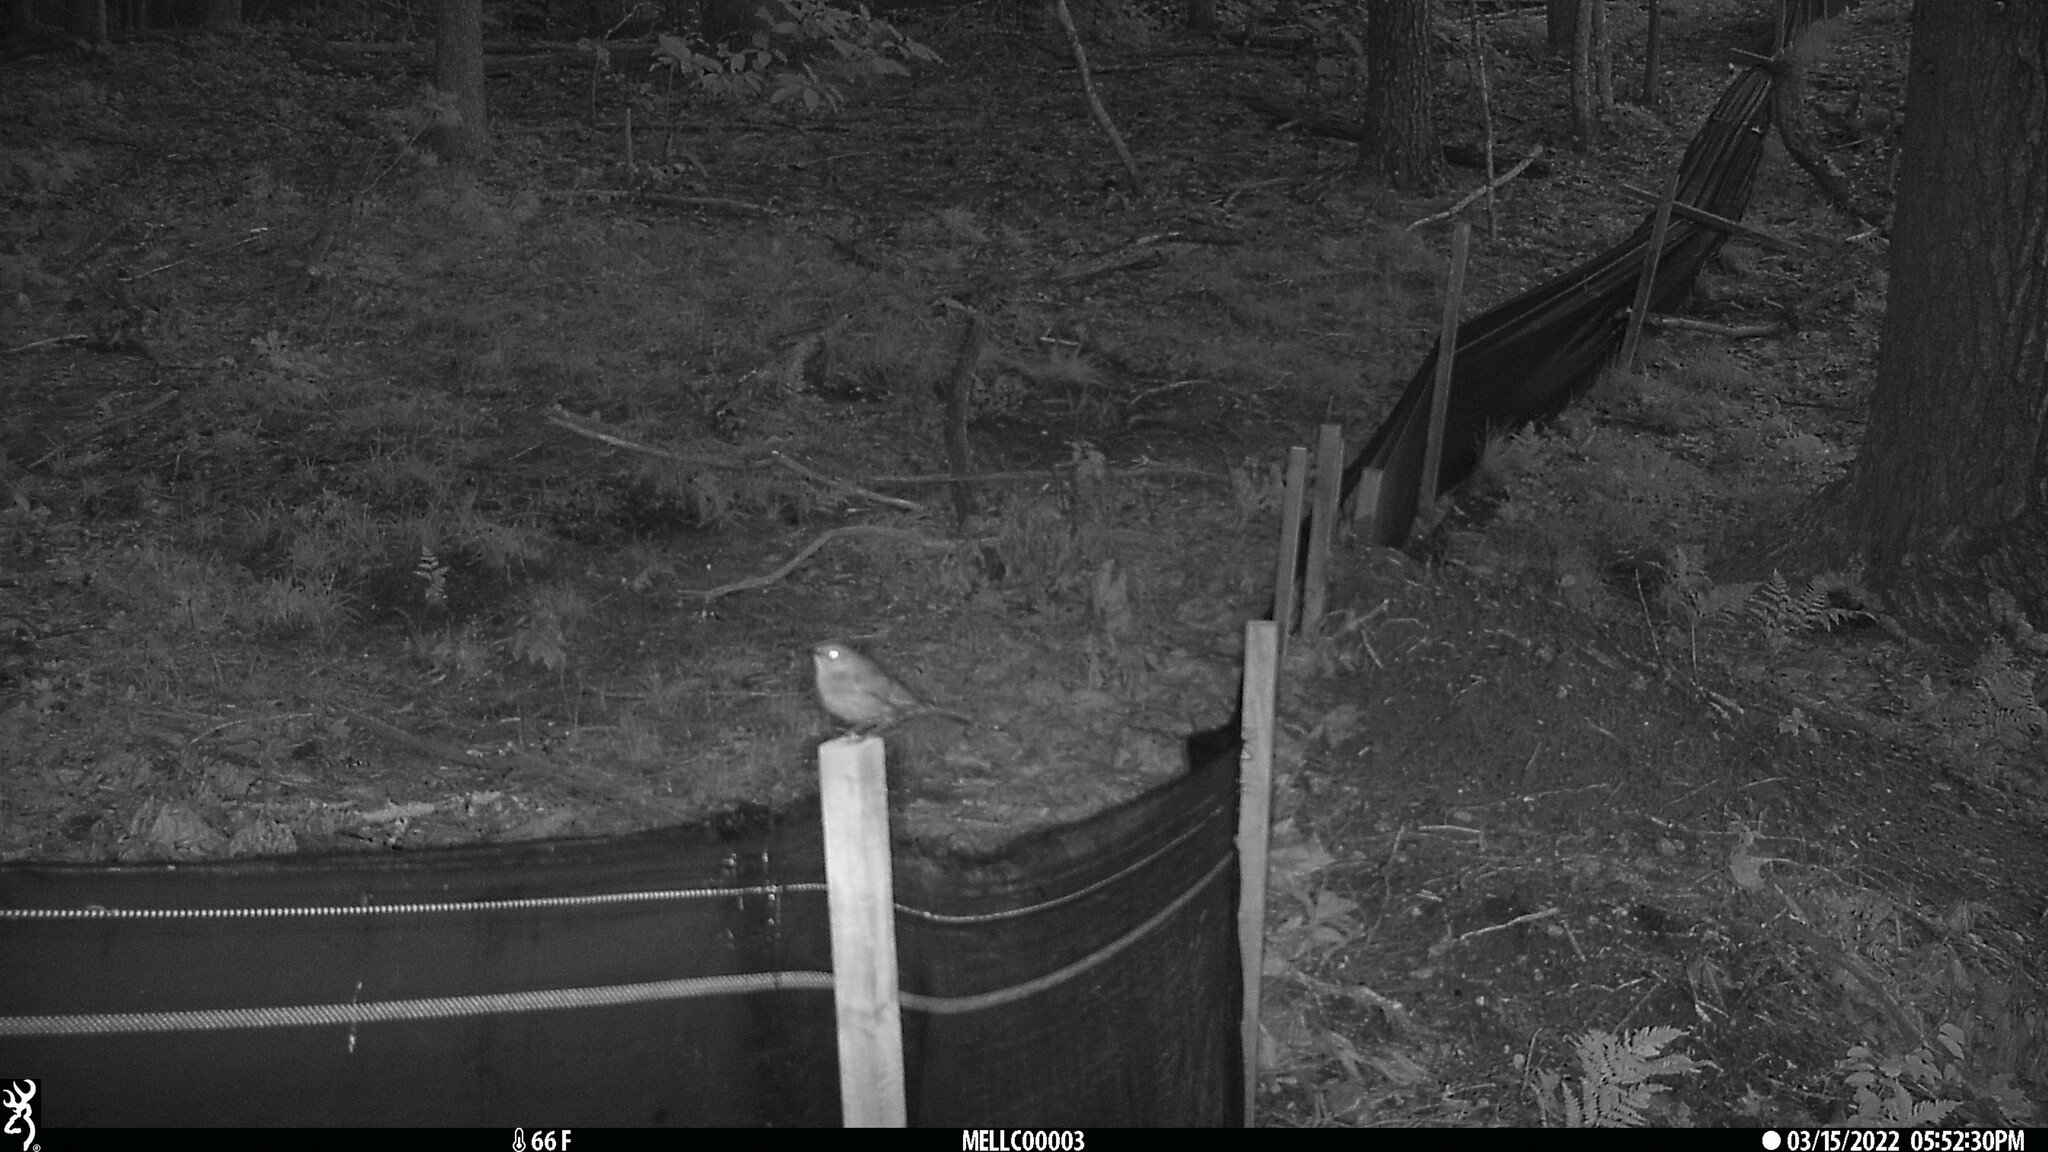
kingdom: Animalia
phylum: Chordata
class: Aves
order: Passeriformes
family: Mimidae
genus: Dumetella
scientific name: Dumetella carolinensis
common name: Gray catbird
